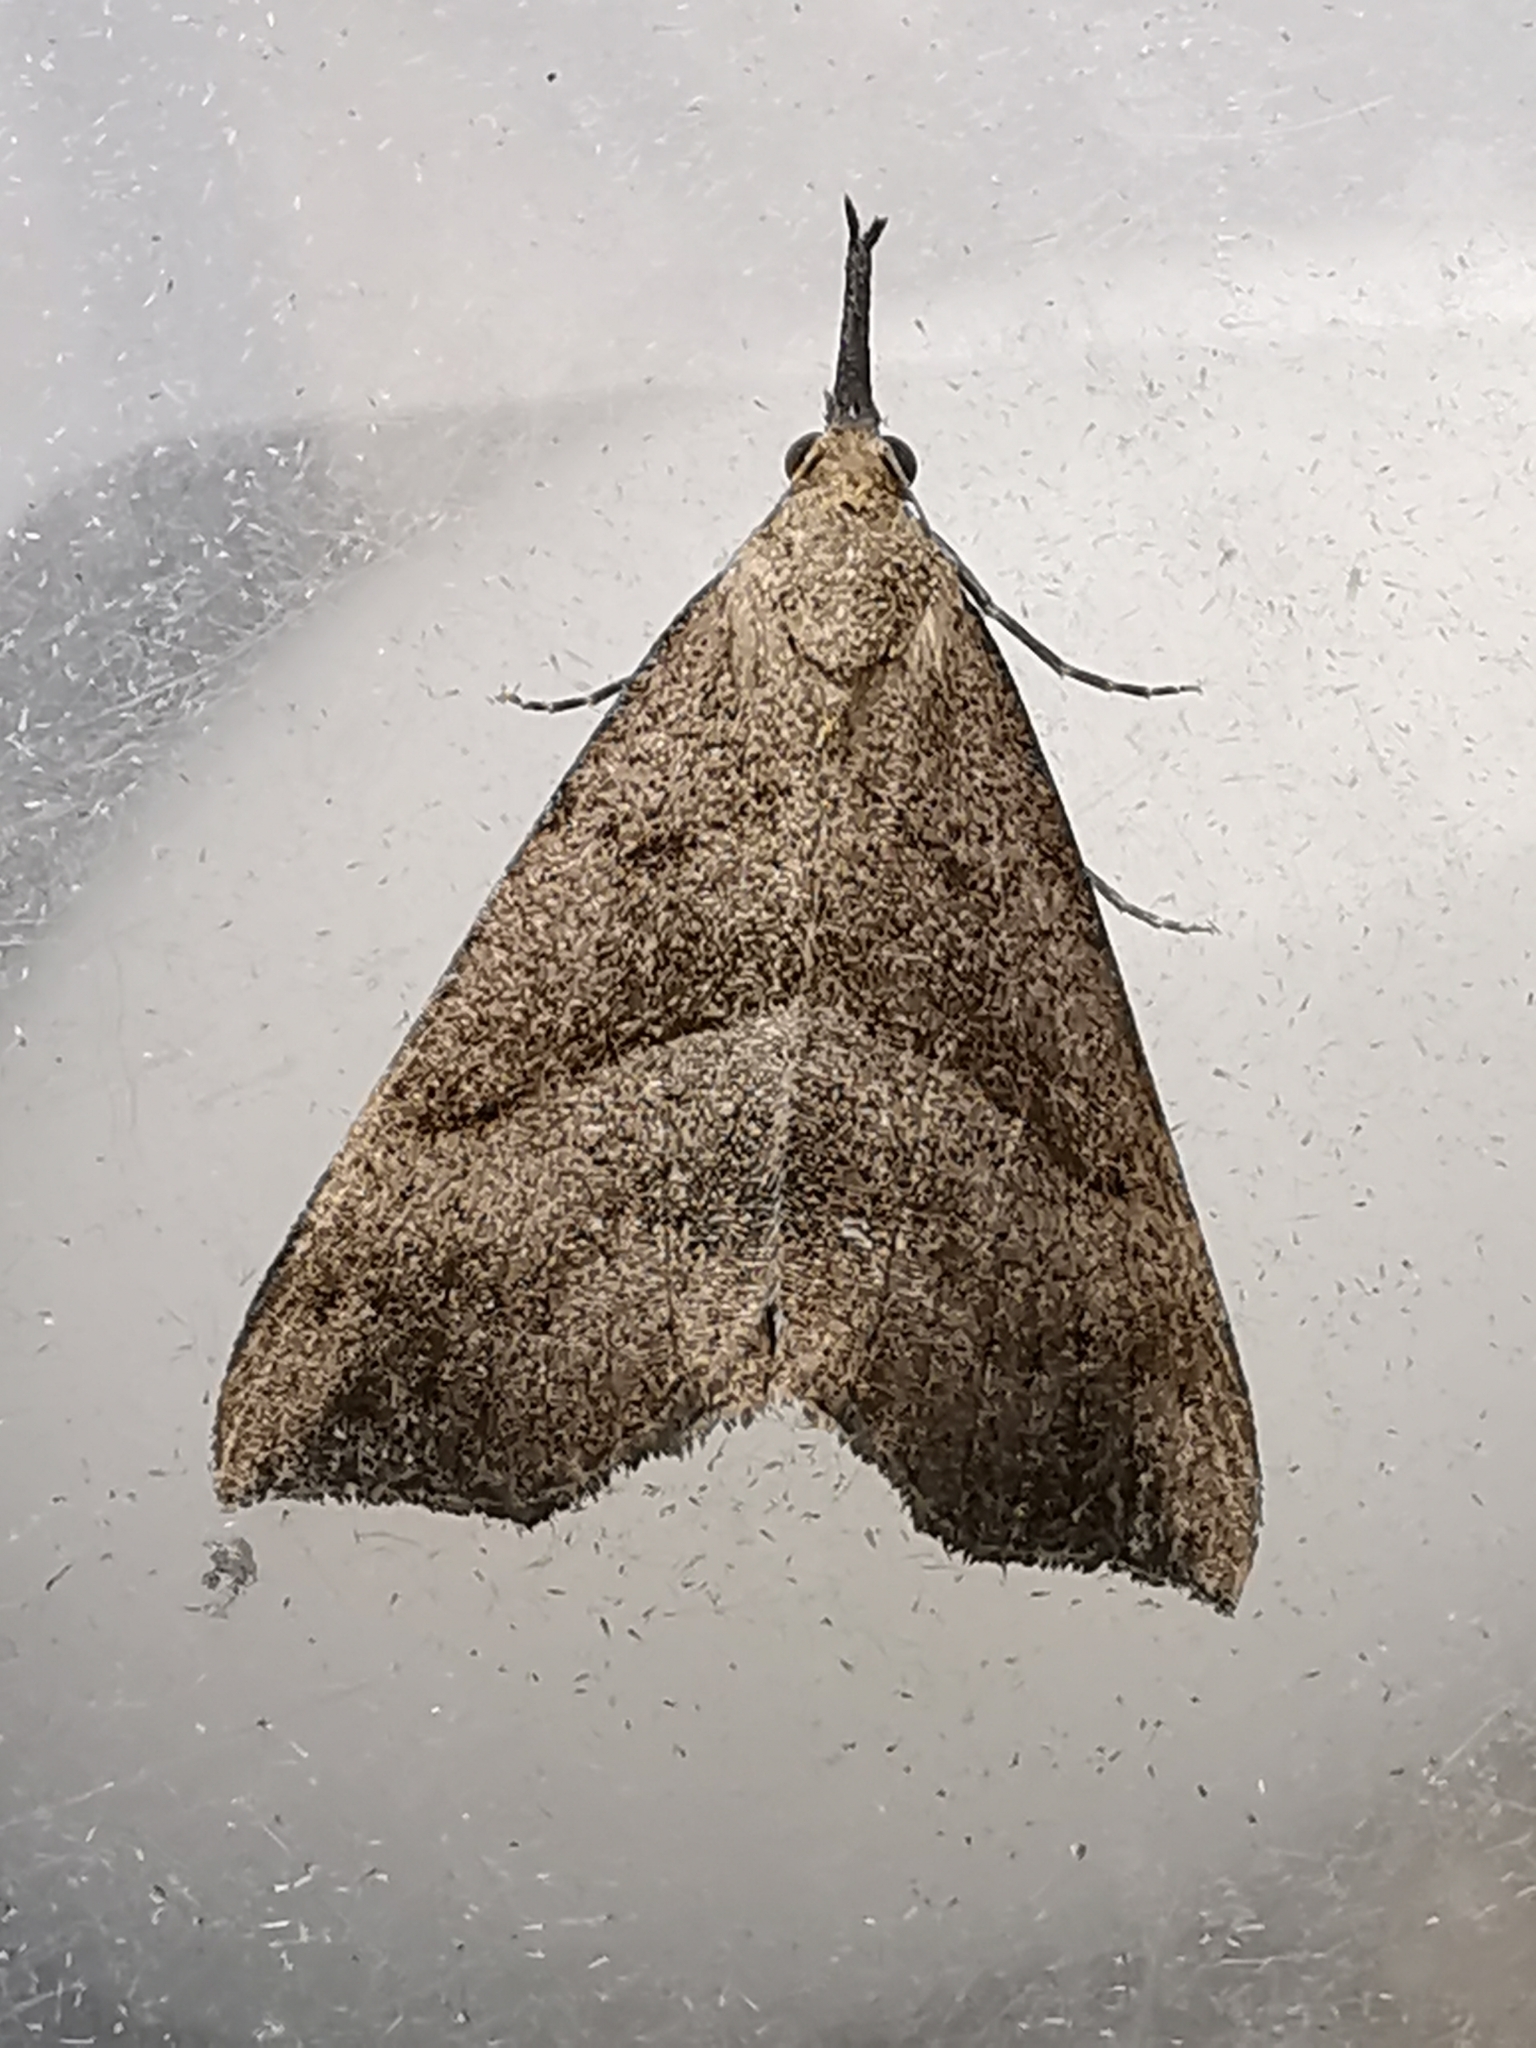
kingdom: Animalia
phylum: Arthropoda
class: Insecta
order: Lepidoptera
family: Erebidae
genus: Hypena
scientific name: Hypena proboscidalis
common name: Snout
